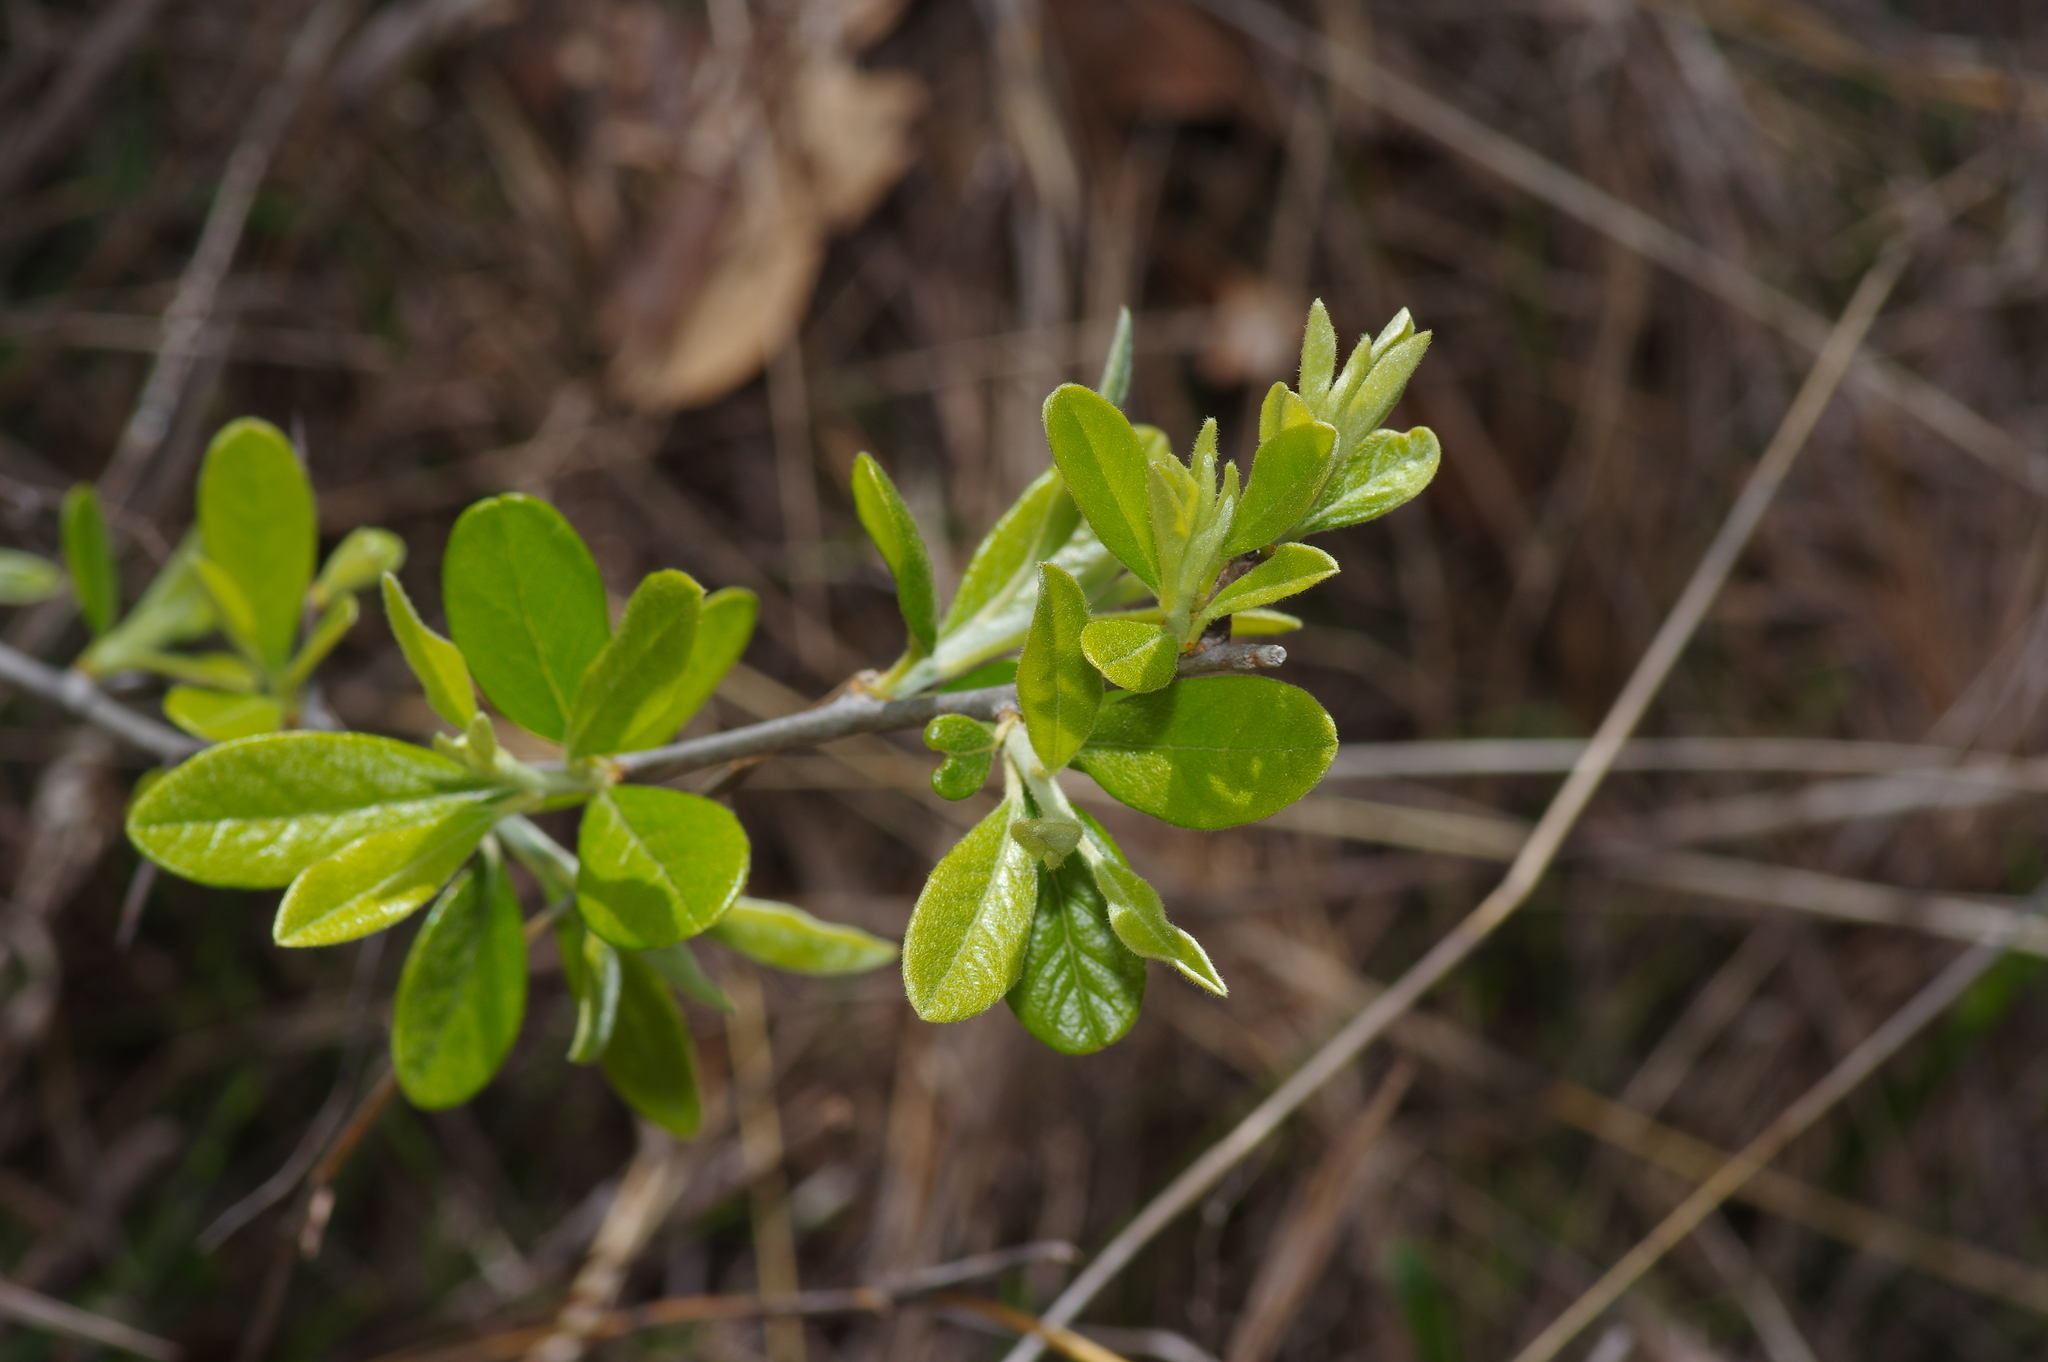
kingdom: Plantae
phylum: Tracheophyta
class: Magnoliopsida
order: Ericales
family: Sapotaceae
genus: Sideroxylon
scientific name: Sideroxylon lanuginosum
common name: Chittamwood
